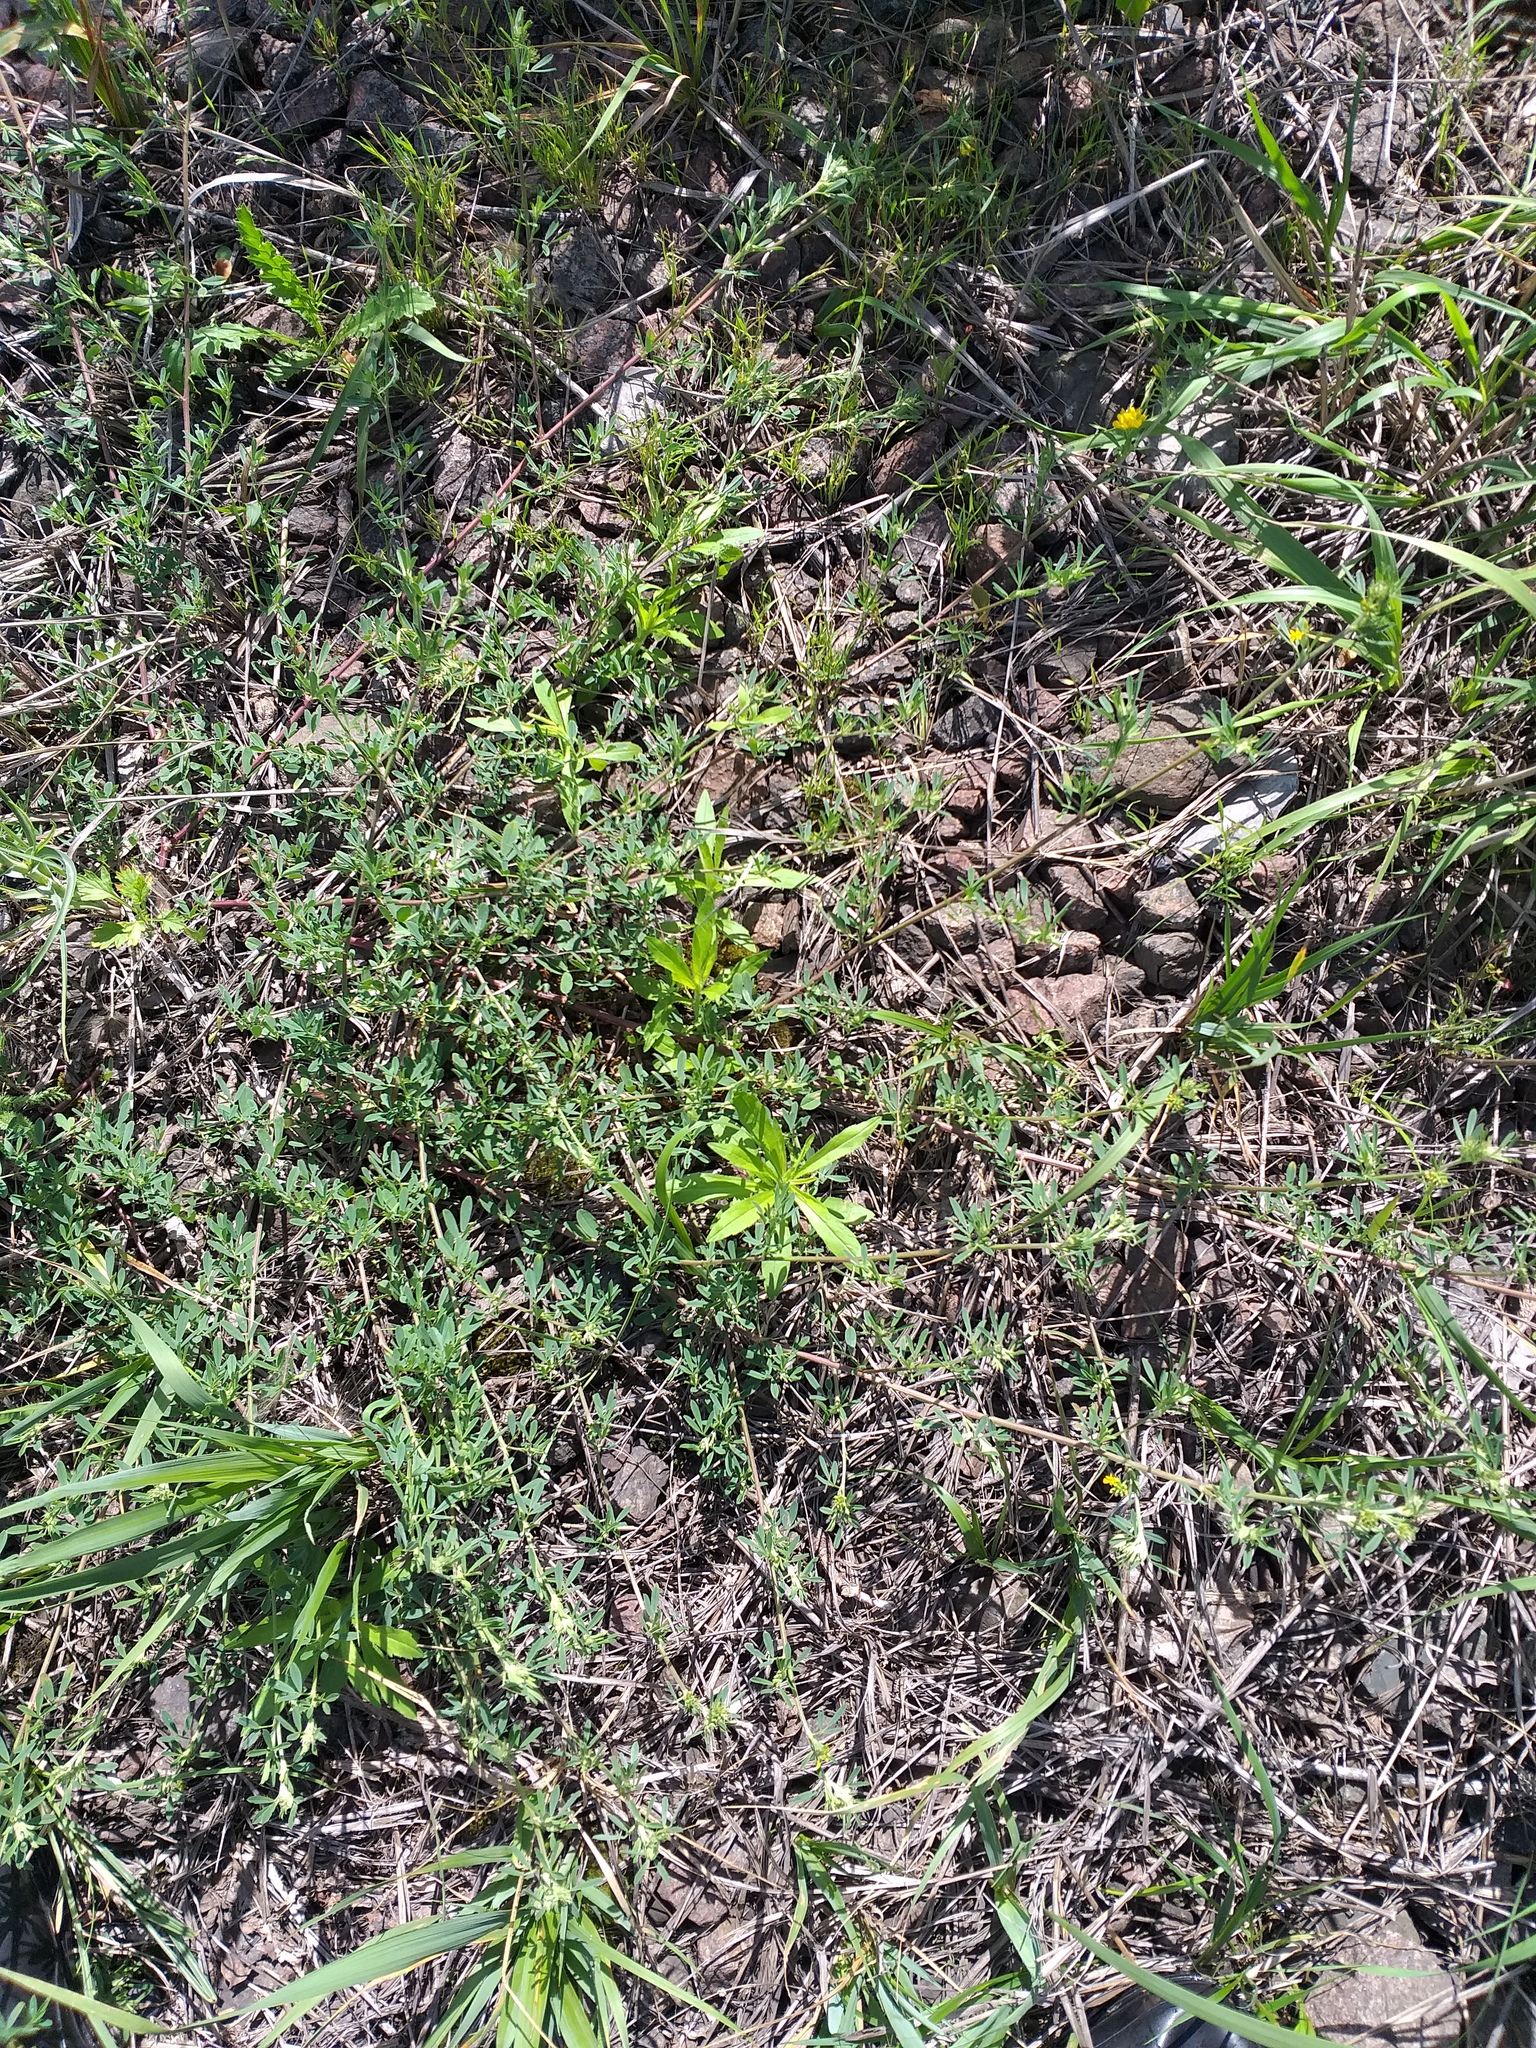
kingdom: Plantae
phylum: Tracheophyta
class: Magnoliopsida
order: Fabales
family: Fabaceae
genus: Medicago
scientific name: Medicago falcata
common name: Sickle medick
